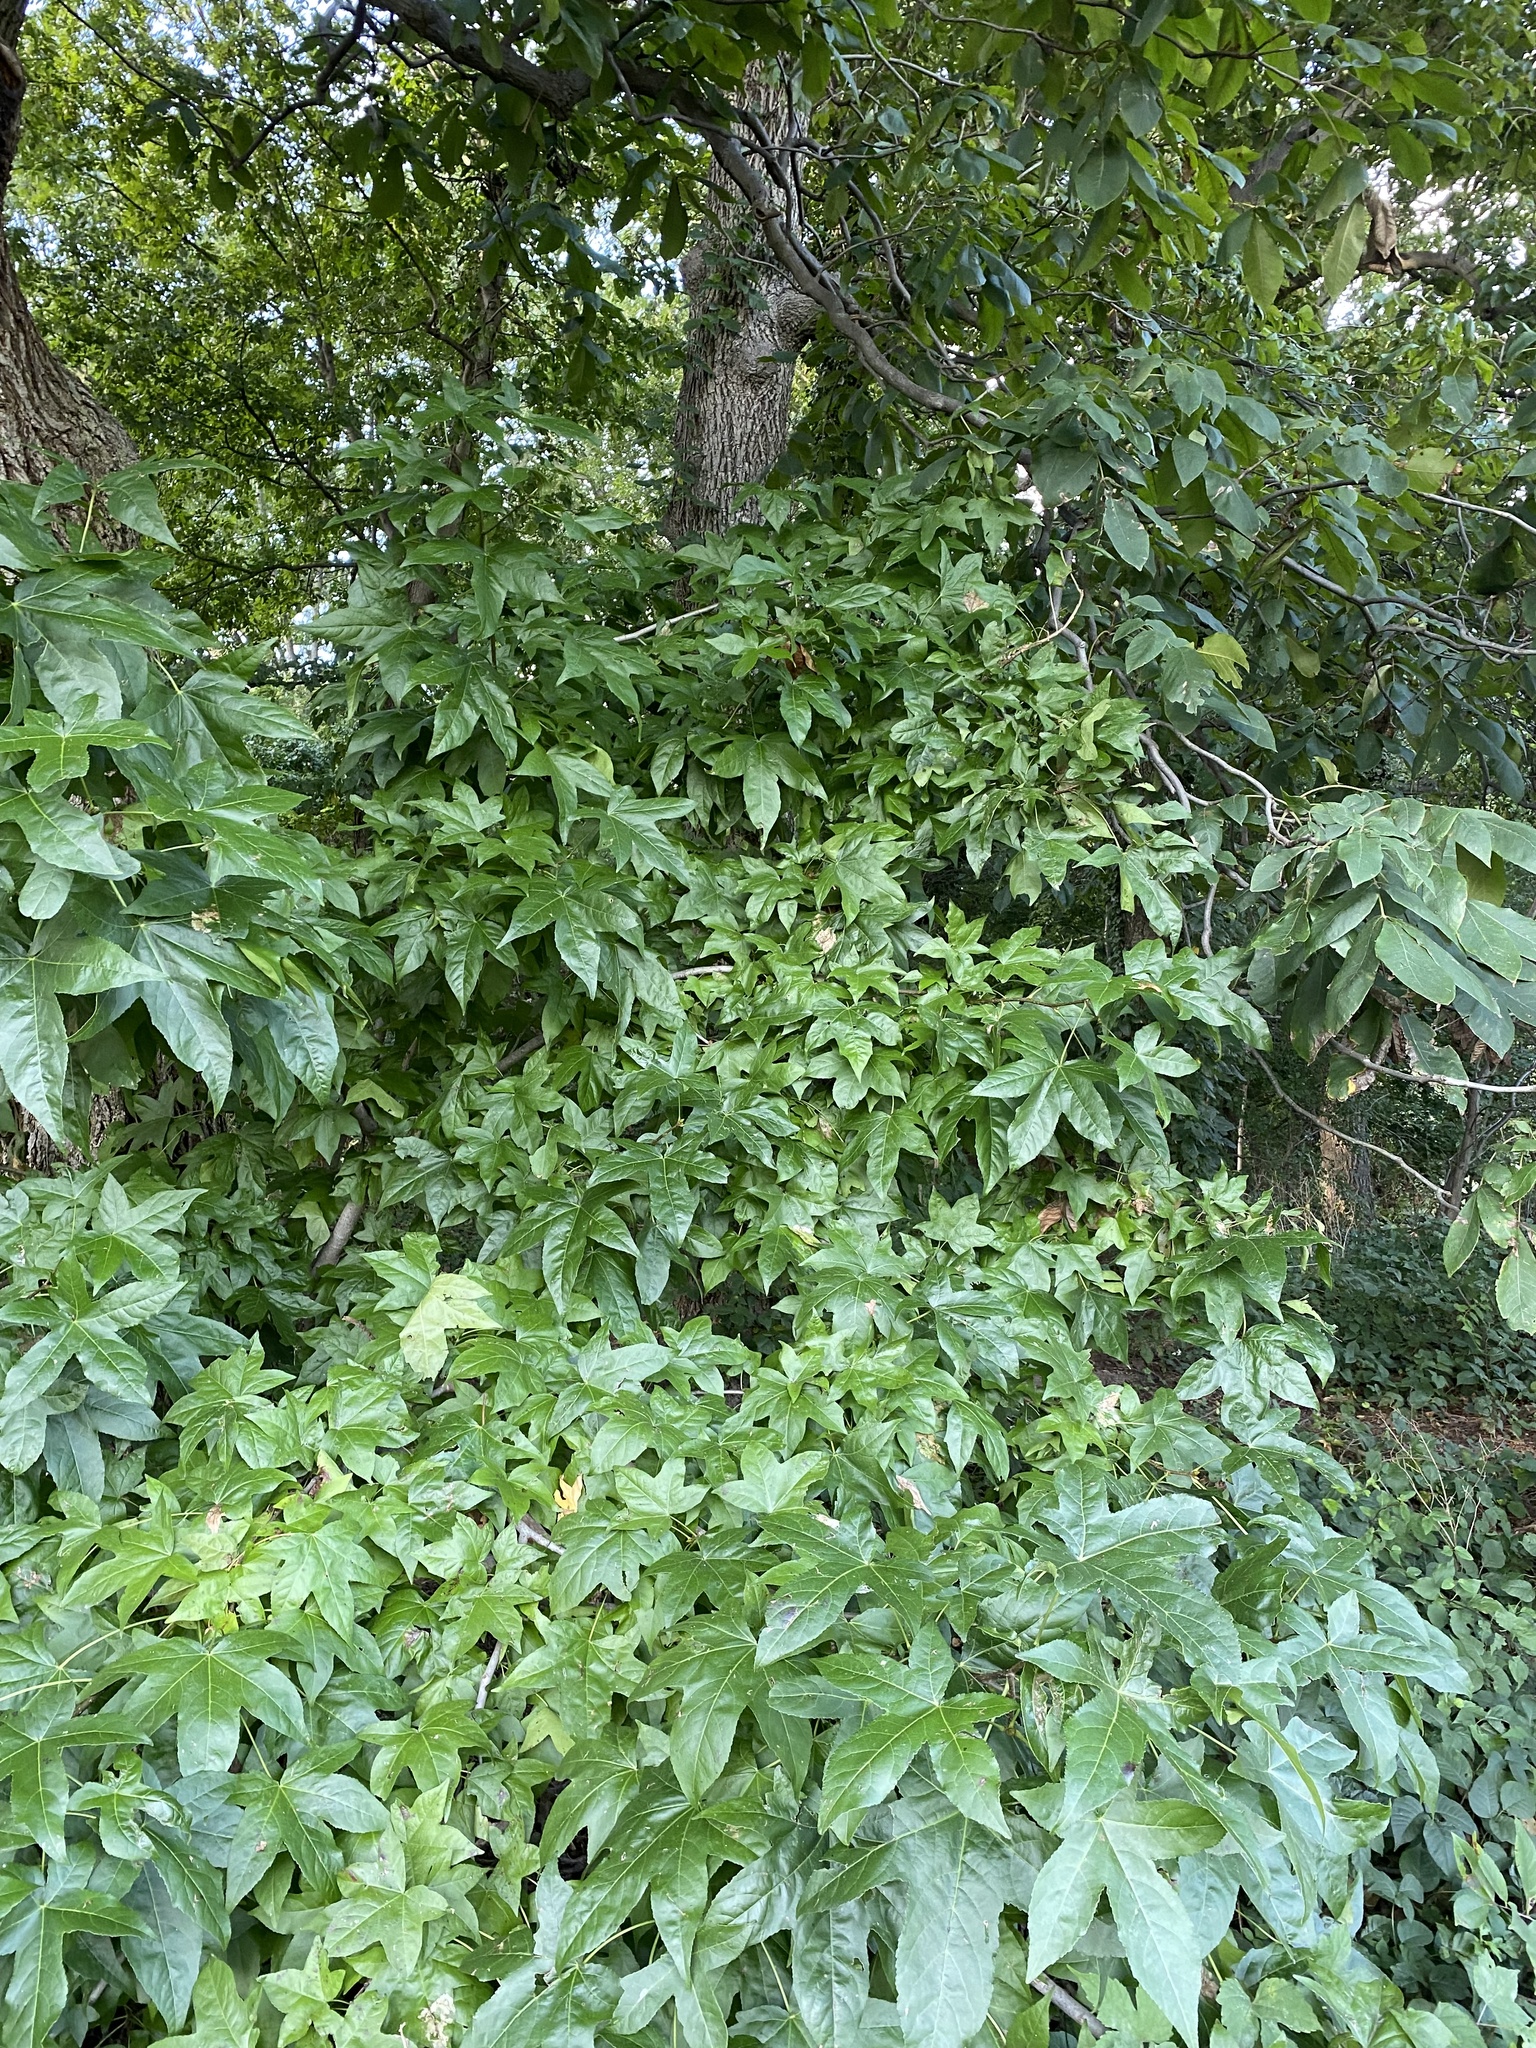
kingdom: Plantae
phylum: Tracheophyta
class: Magnoliopsida
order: Saxifragales
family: Altingiaceae
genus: Liquidambar
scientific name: Liquidambar styraciflua
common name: Sweet gum
